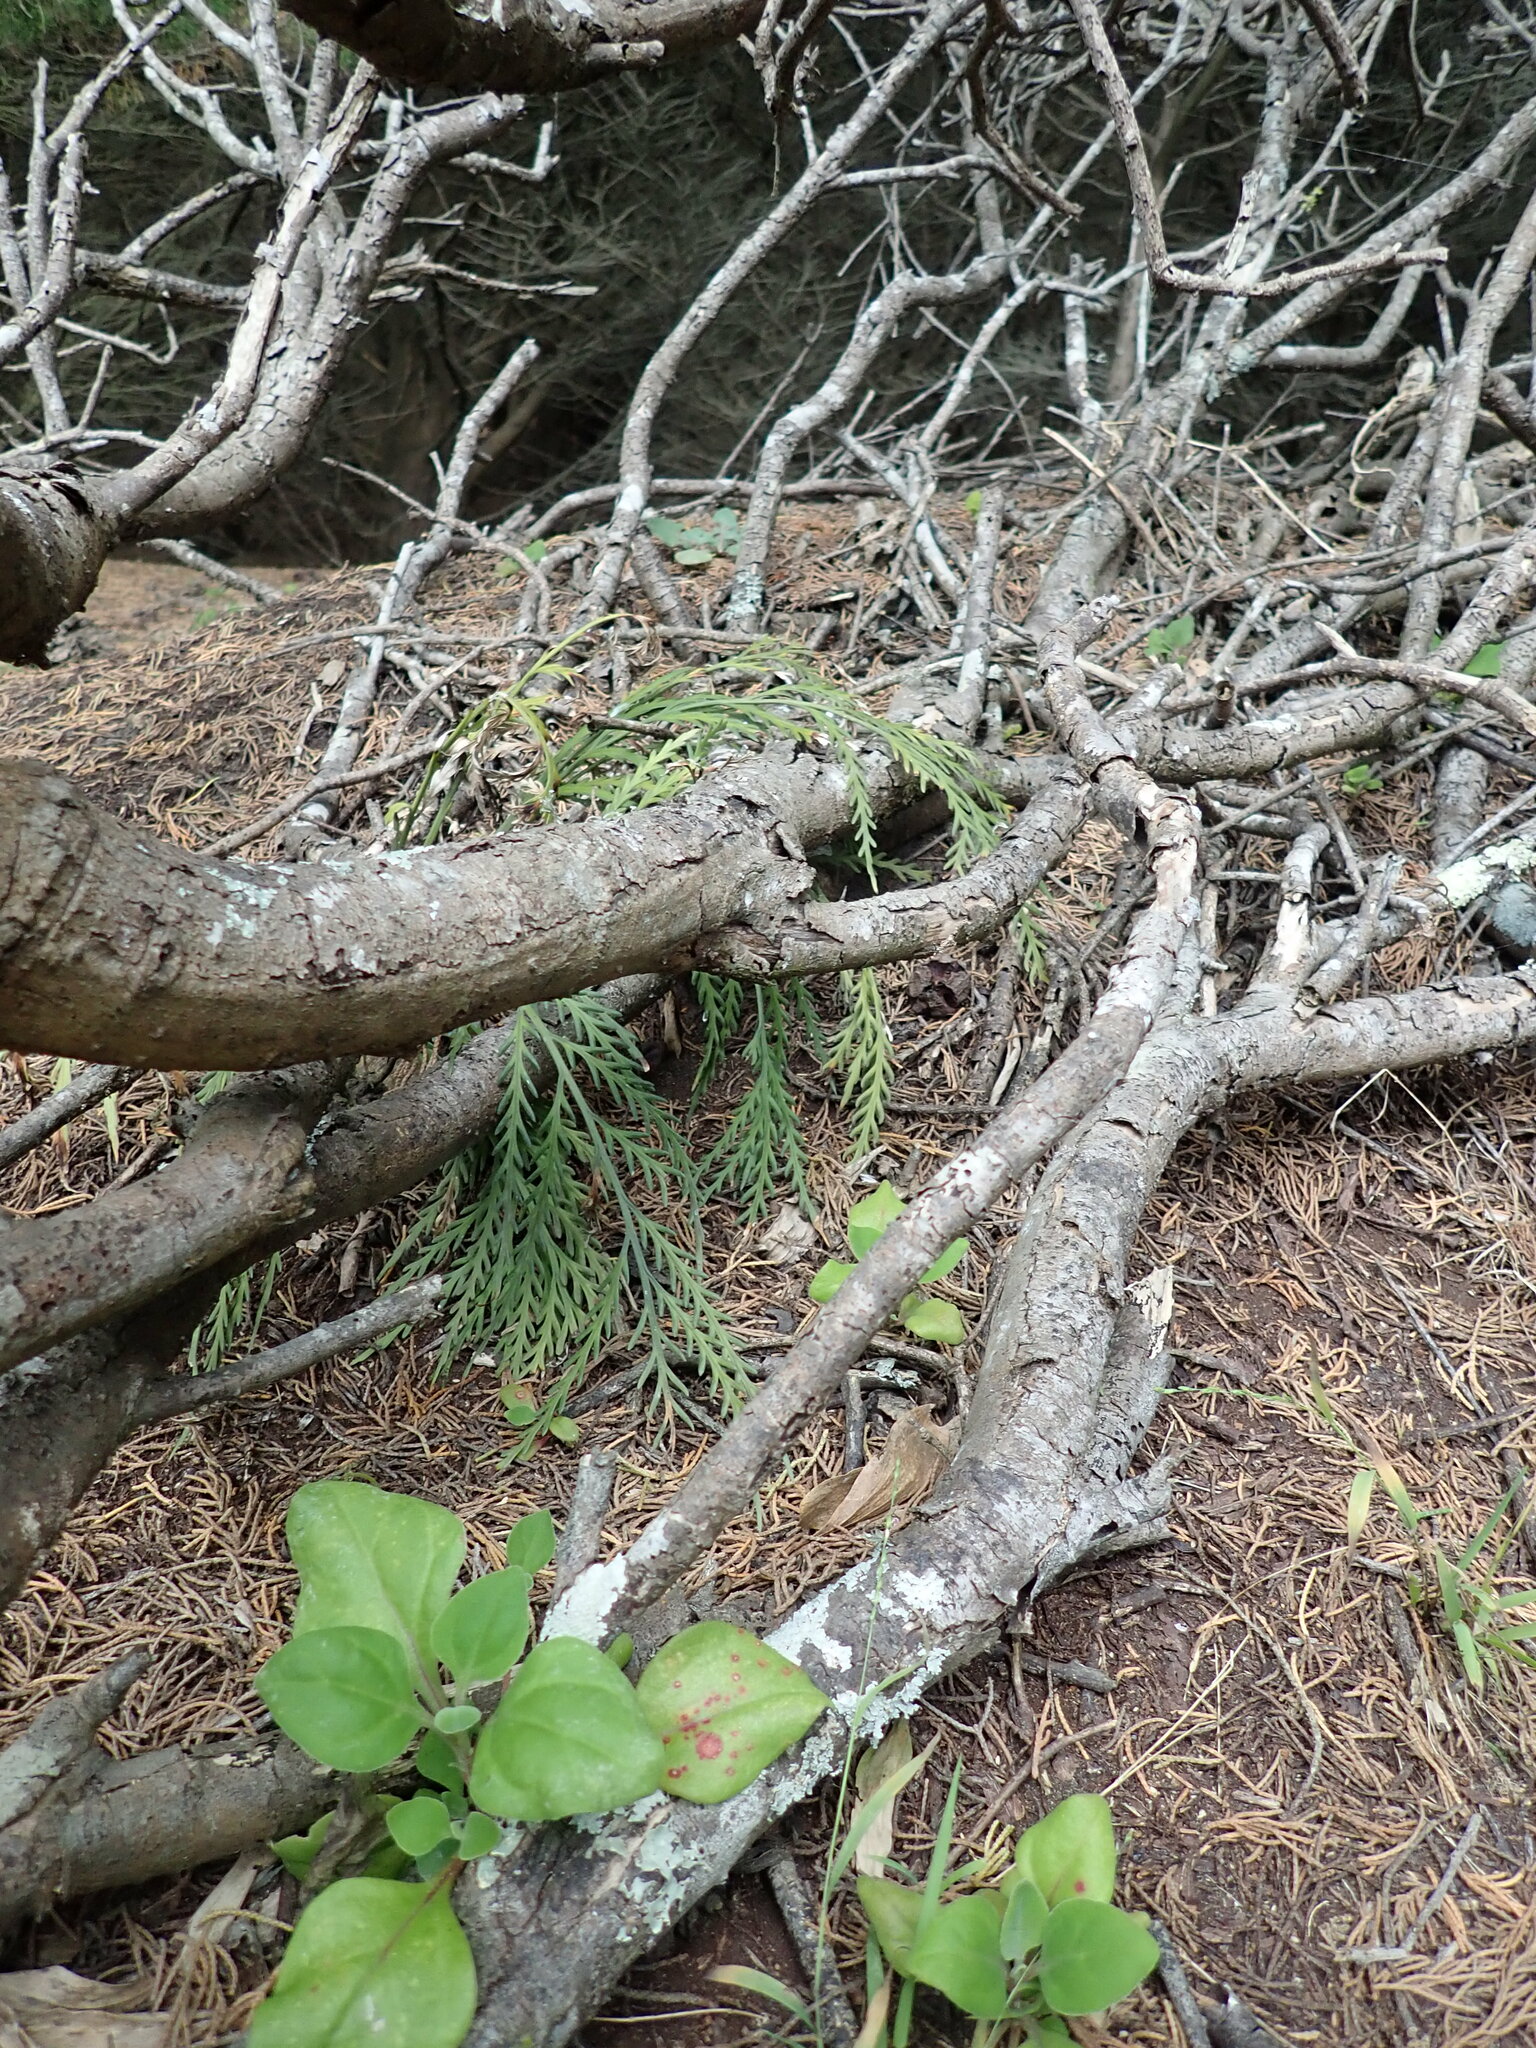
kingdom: Plantae
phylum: Tracheophyta
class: Polypodiopsida
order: Polypodiales
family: Aspleniaceae
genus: Asplenium
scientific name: Asplenium flaccidum
